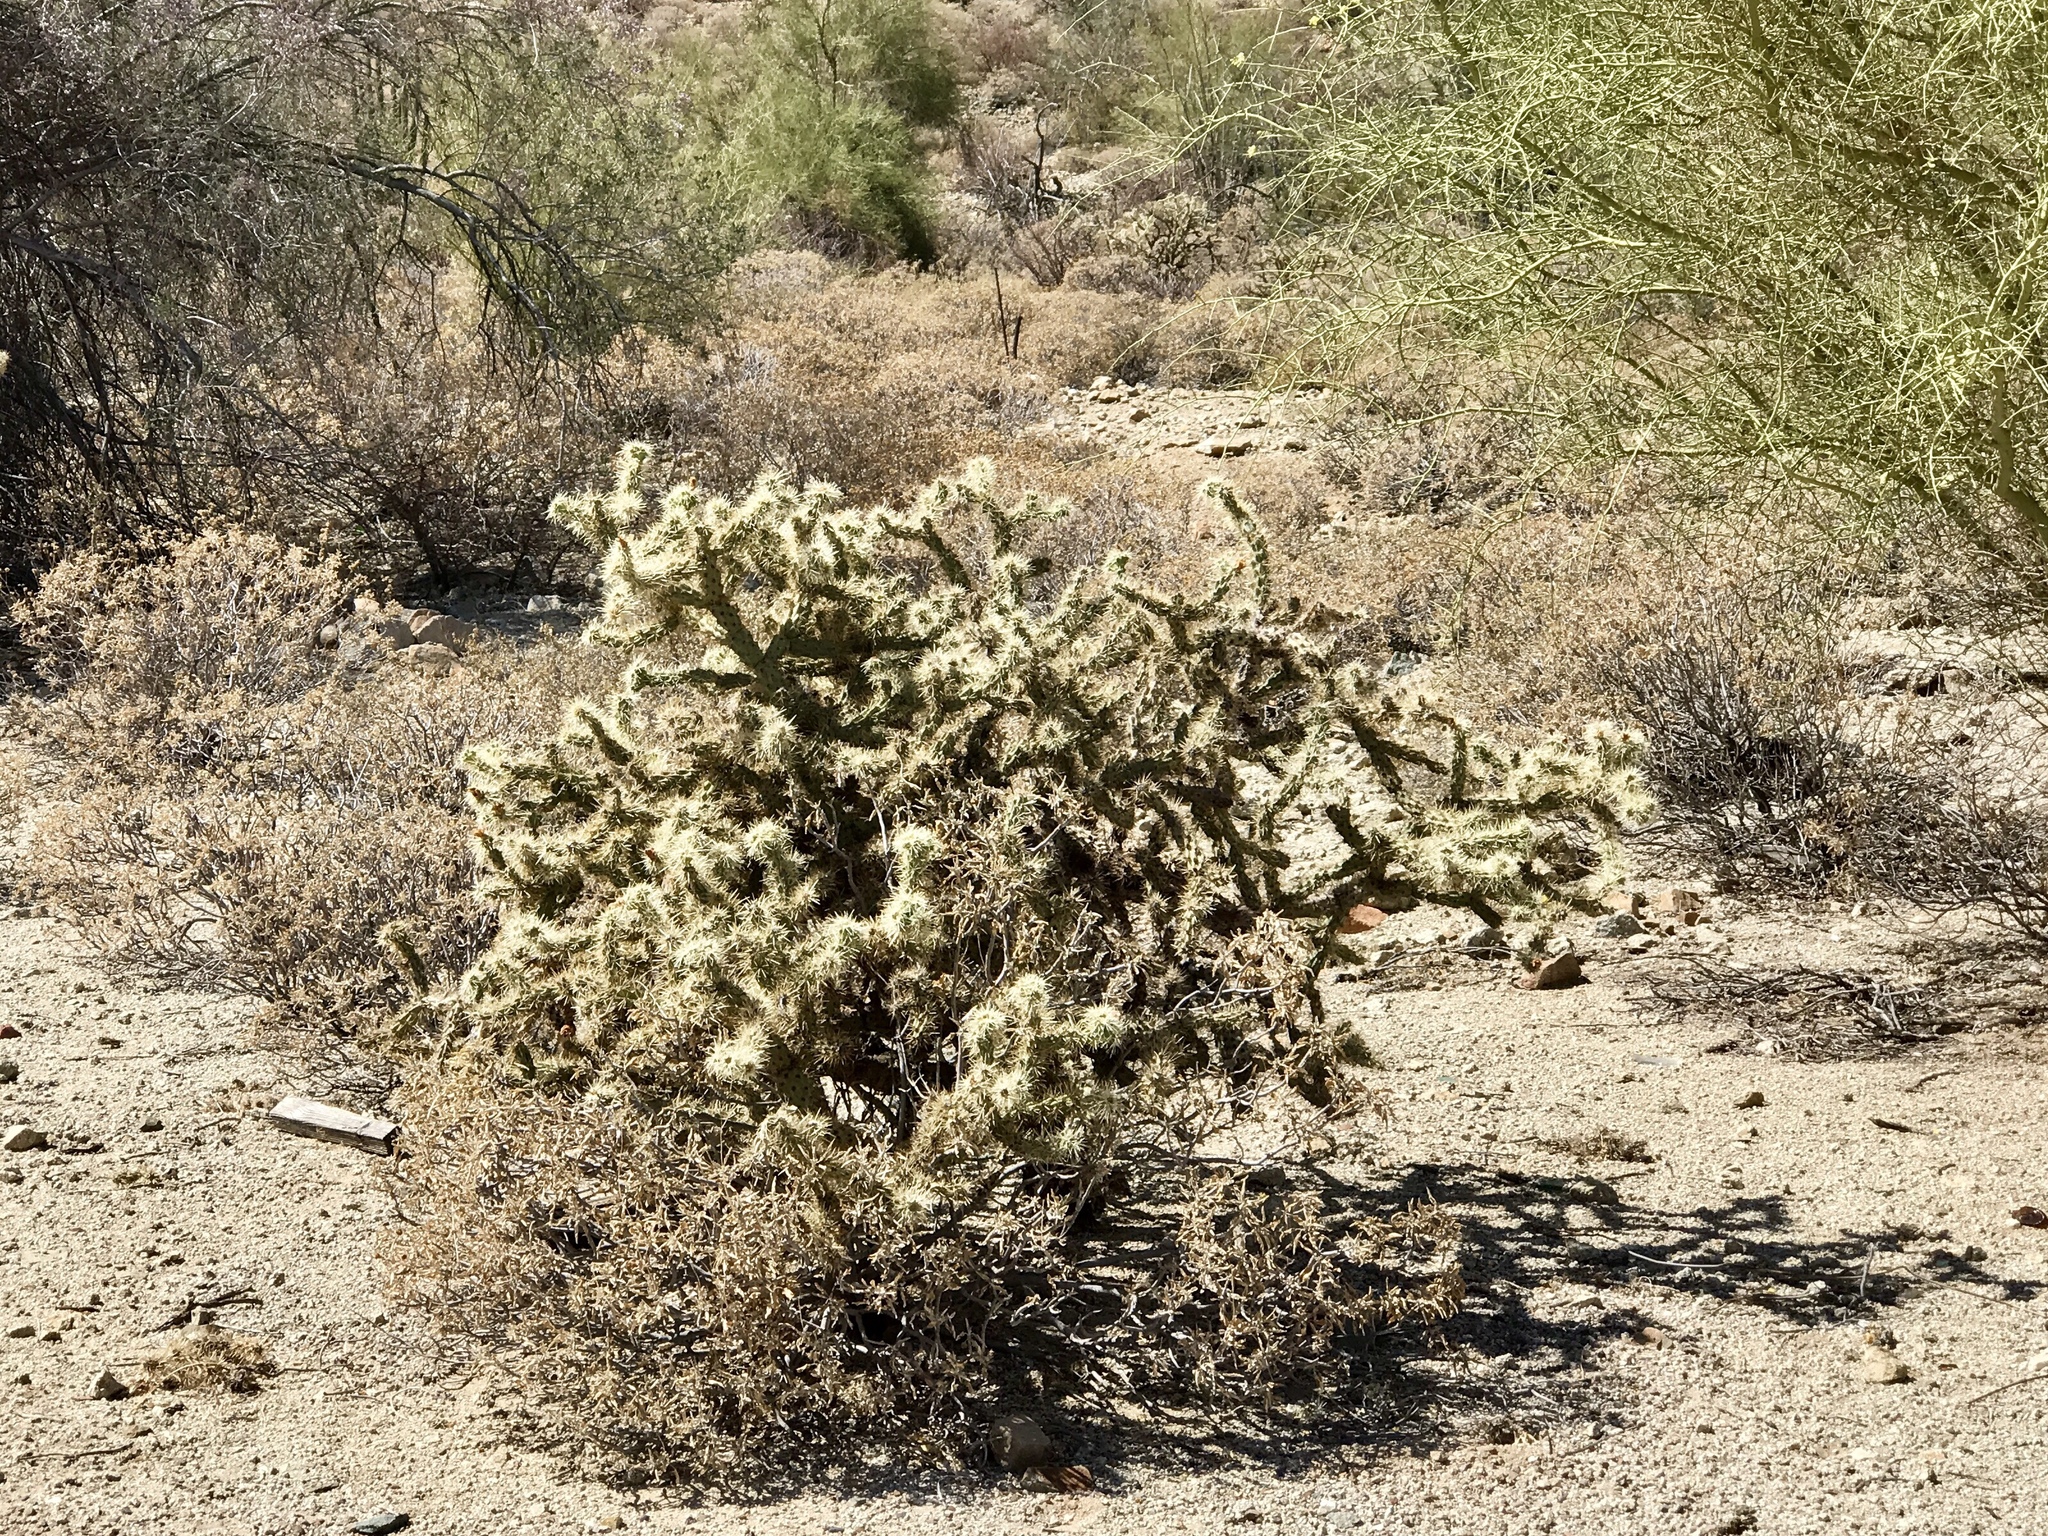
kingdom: Plantae
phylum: Tracheophyta
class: Magnoliopsida
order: Caryophyllales
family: Cactaceae
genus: Cylindropuntia
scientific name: Cylindropuntia acanthocarpa
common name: Buckhorn cholla
